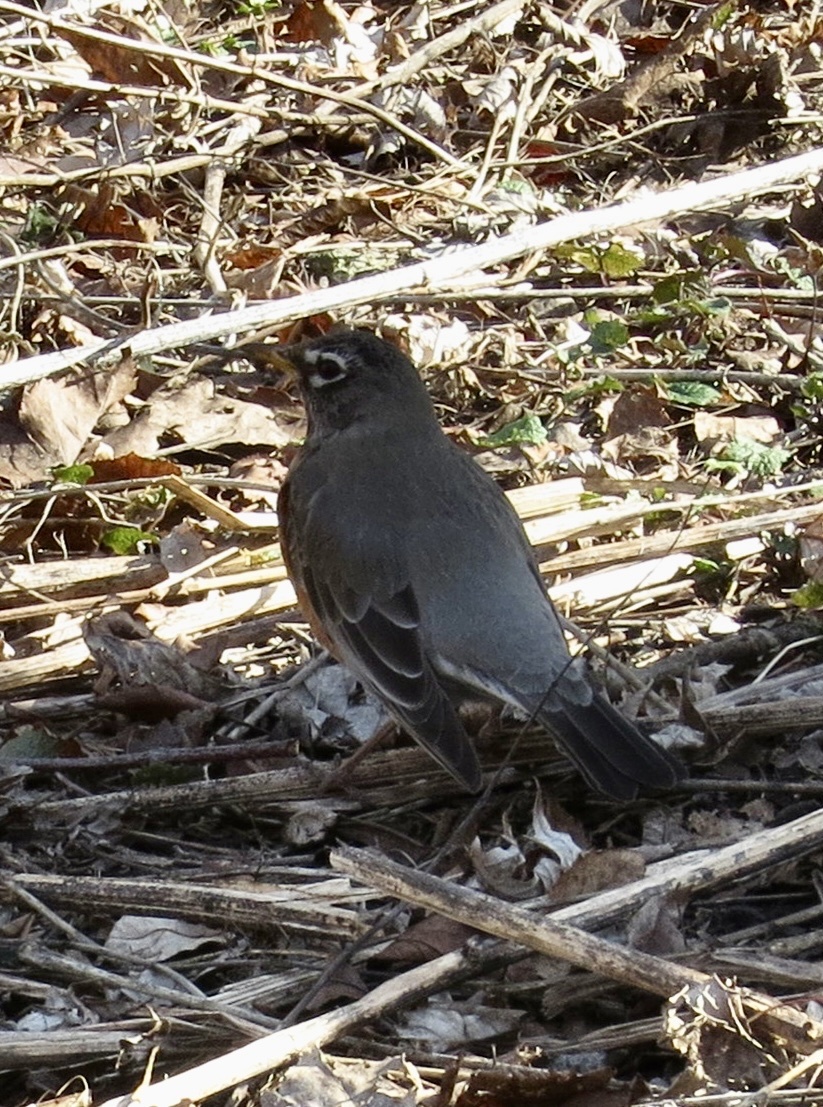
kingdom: Animalia
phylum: Chordata
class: Aves
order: Passeriformes
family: Turdidae
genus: Turdus
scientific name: Turdus migratorius
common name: American robin
